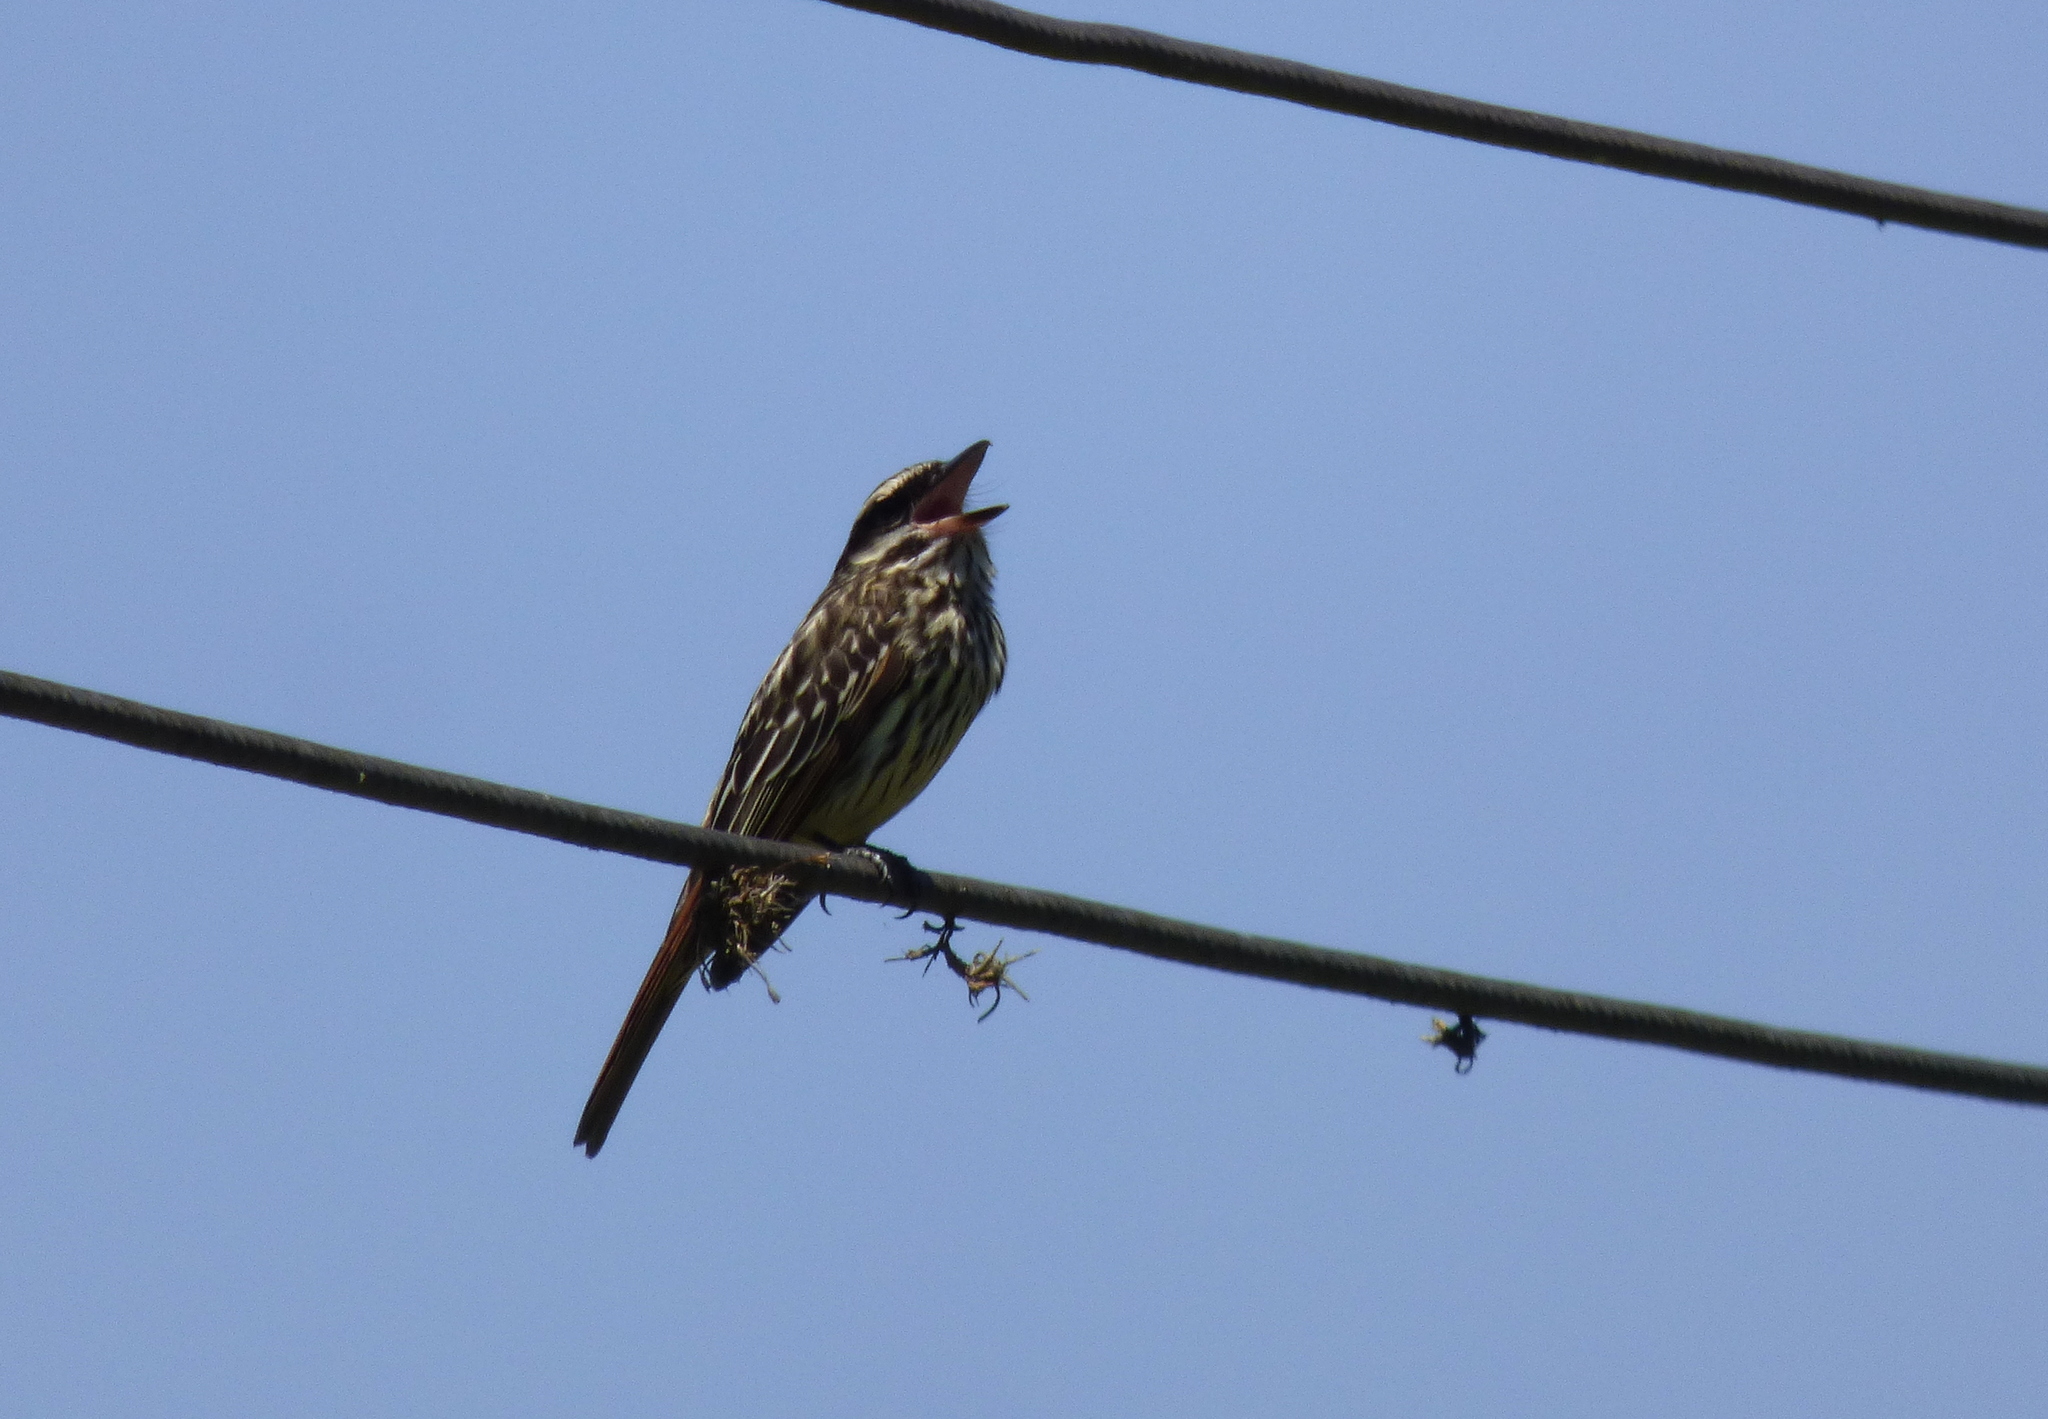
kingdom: Animalia
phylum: Chordata
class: Aves
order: Passeriformes
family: Tyrannidae
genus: Myiodynastes
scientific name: Myiodynastes maculatus
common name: Streaked flycatcher
